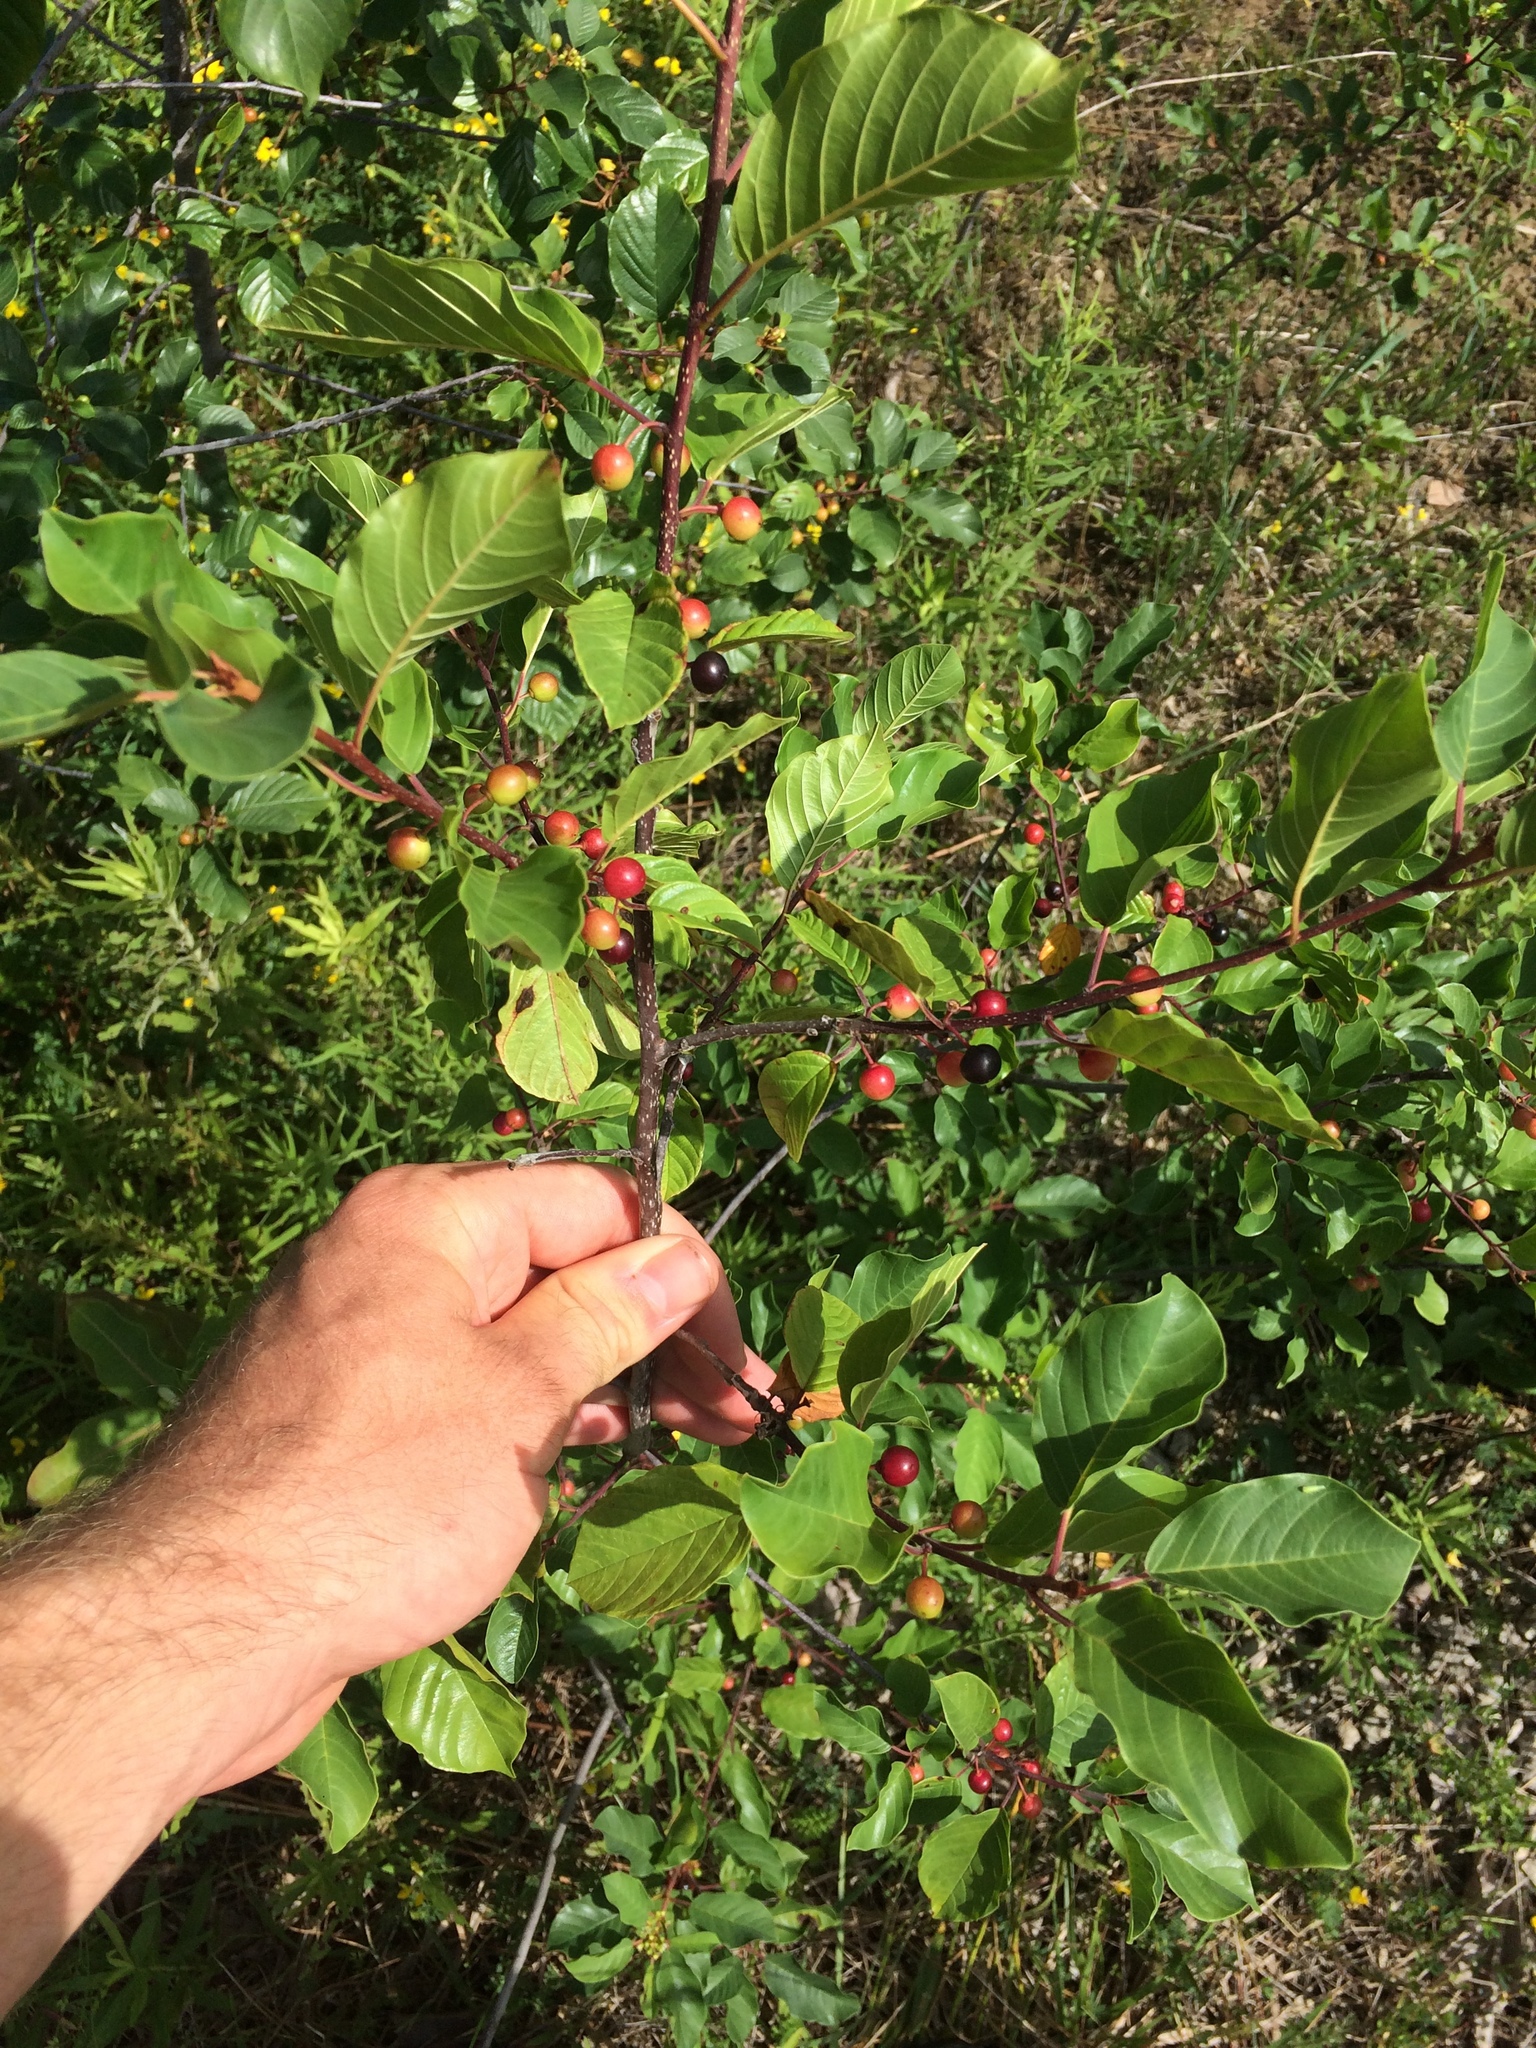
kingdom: Plantae
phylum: Tracheophyta
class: Magnoliopsida
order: Rosales
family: Rhamnaceae
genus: Frangula
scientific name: Frangula alnus
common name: Alder buckthorn
